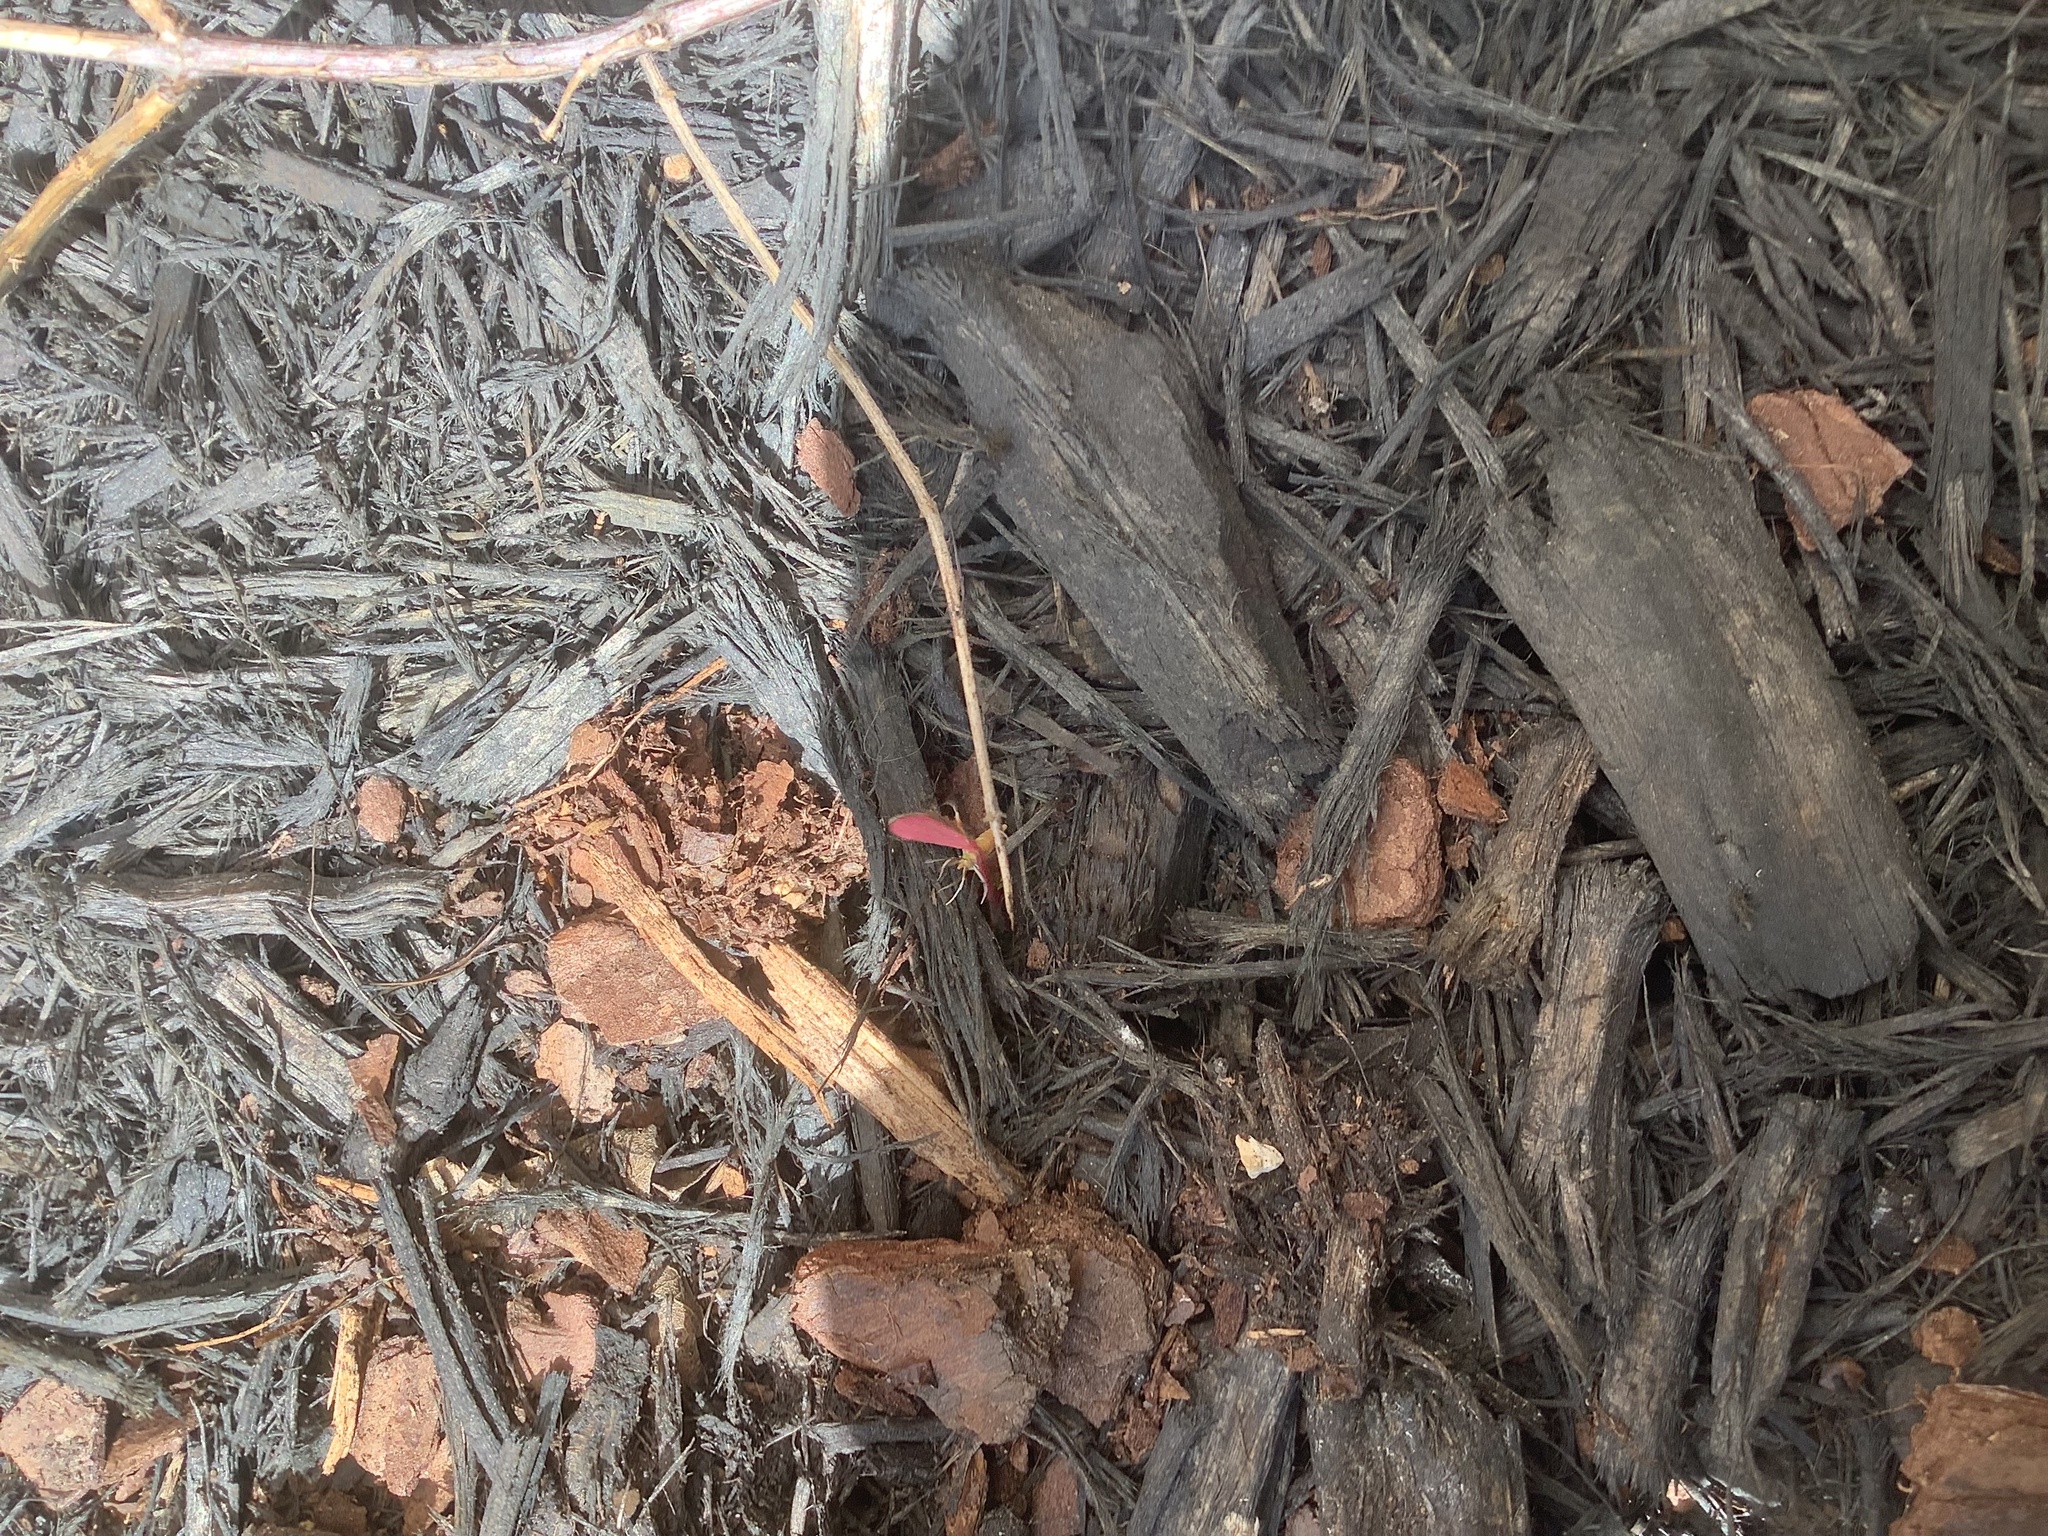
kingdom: Animalia
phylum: Arthropoda
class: Insecta
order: Lepidoptera
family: Crambidae
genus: Pyrausta
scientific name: Pyrausta inornatalis
